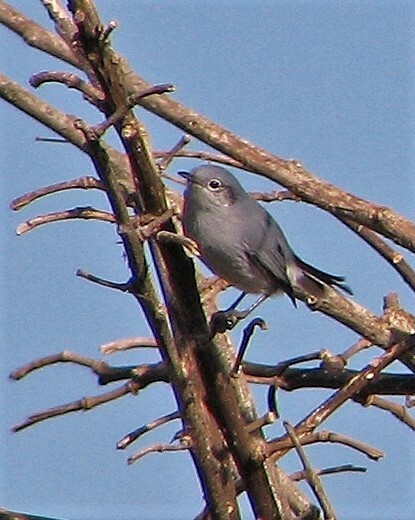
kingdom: Animalia
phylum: Chordata
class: Aves
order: Passeriformes
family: Polioptilidae
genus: Polioptila
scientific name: Polioptila dumicola
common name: Masked gnatcatcher
